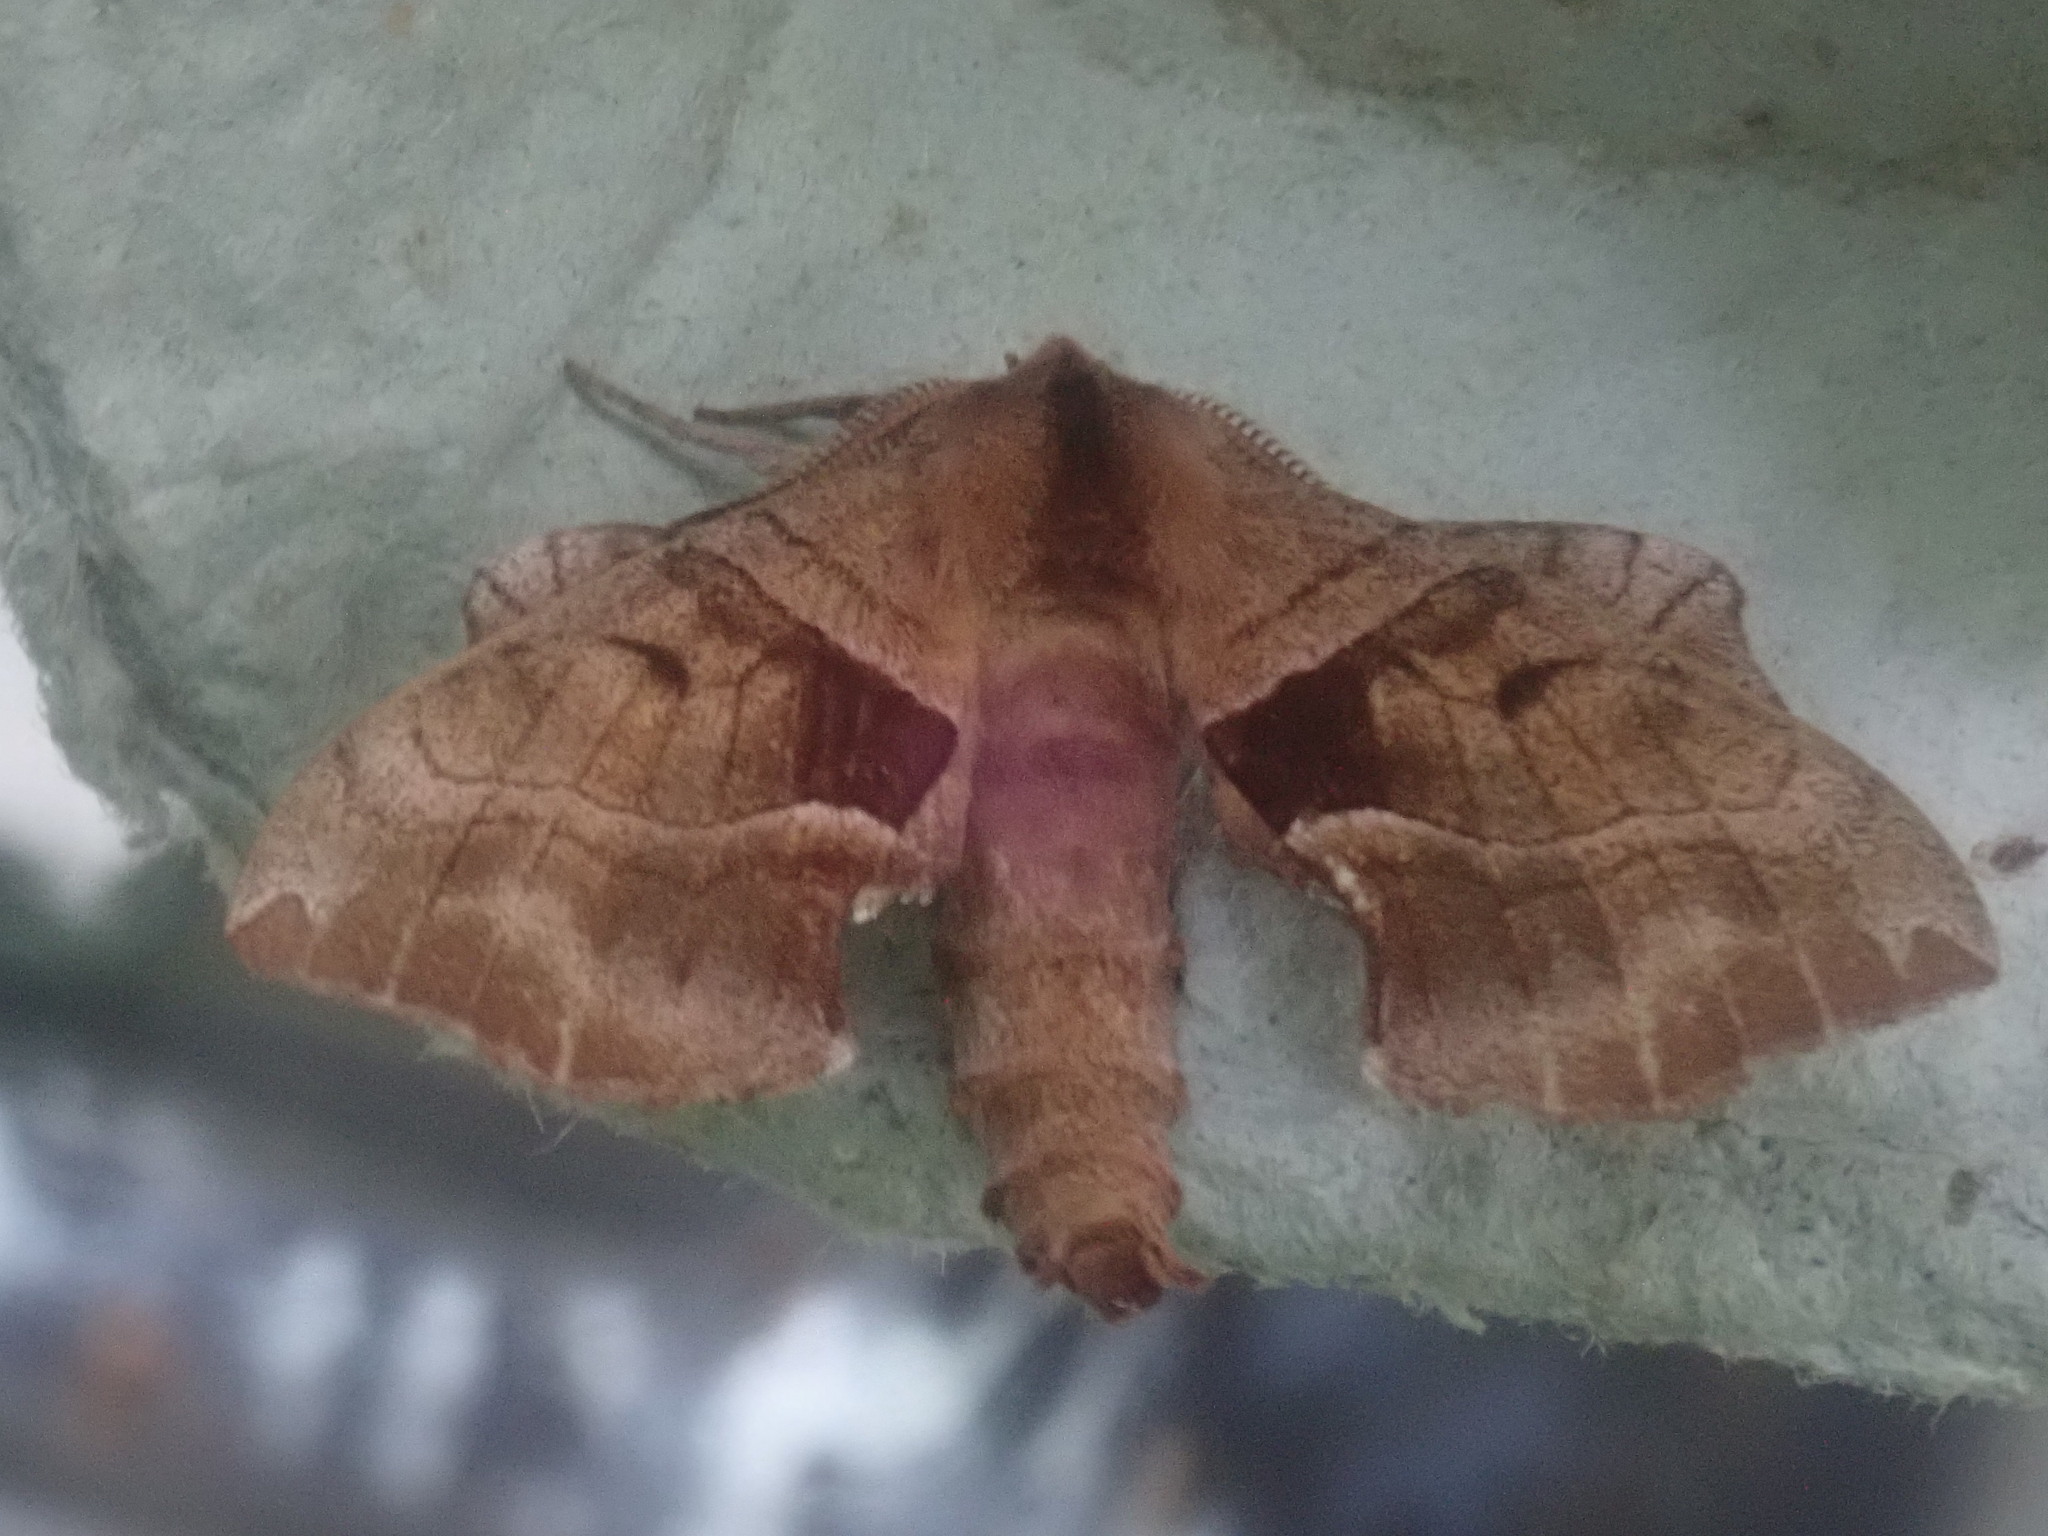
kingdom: Animalia
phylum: Arthropoda
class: Insecta
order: Lepidoptera
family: Sphingidae
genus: Amorpha
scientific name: Amorpha juglandis
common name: Walnut sphinx
